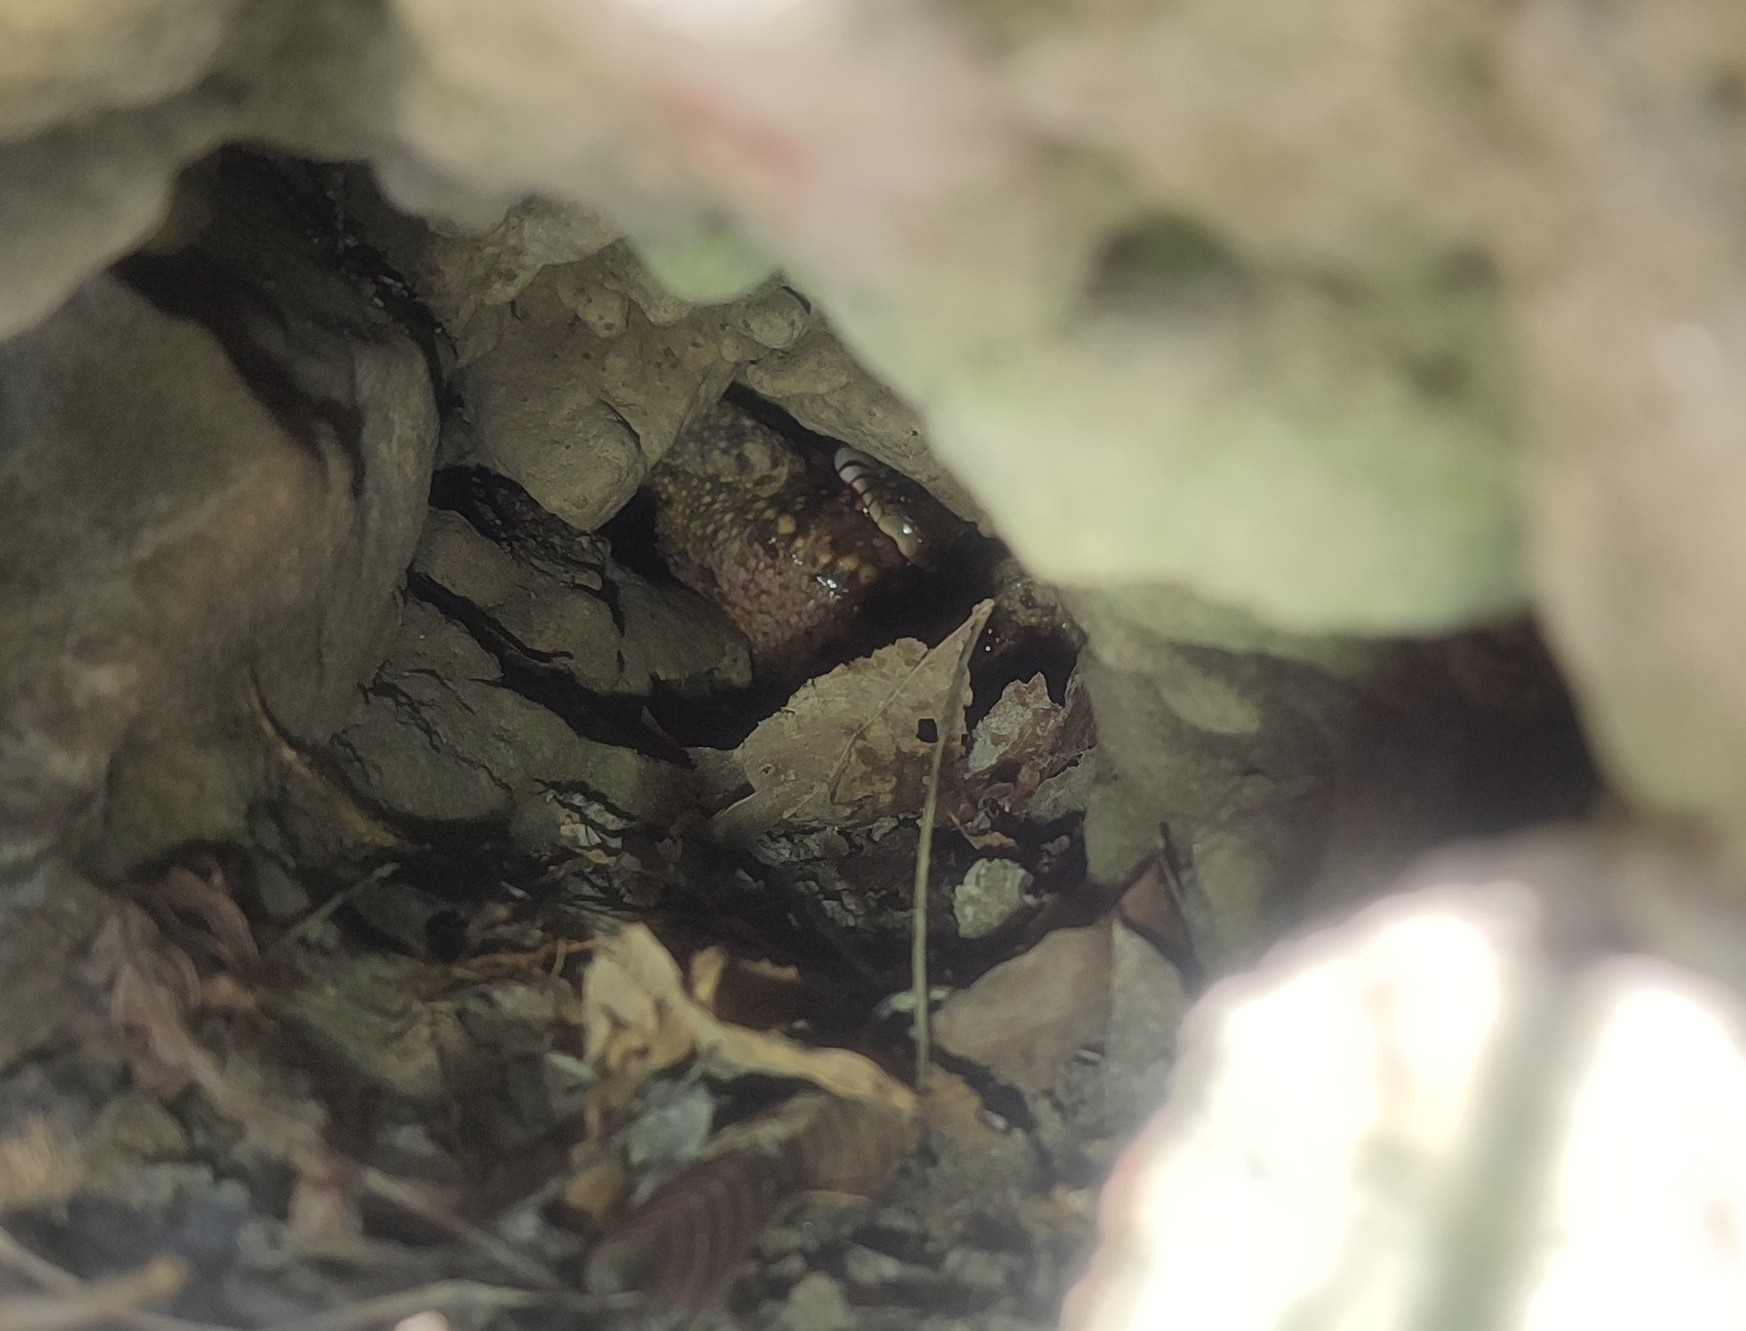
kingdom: Animalia
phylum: Chordata
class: Squamata
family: Colubridae
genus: Natrix
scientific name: Natrix helvetica
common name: Banded grass snake
